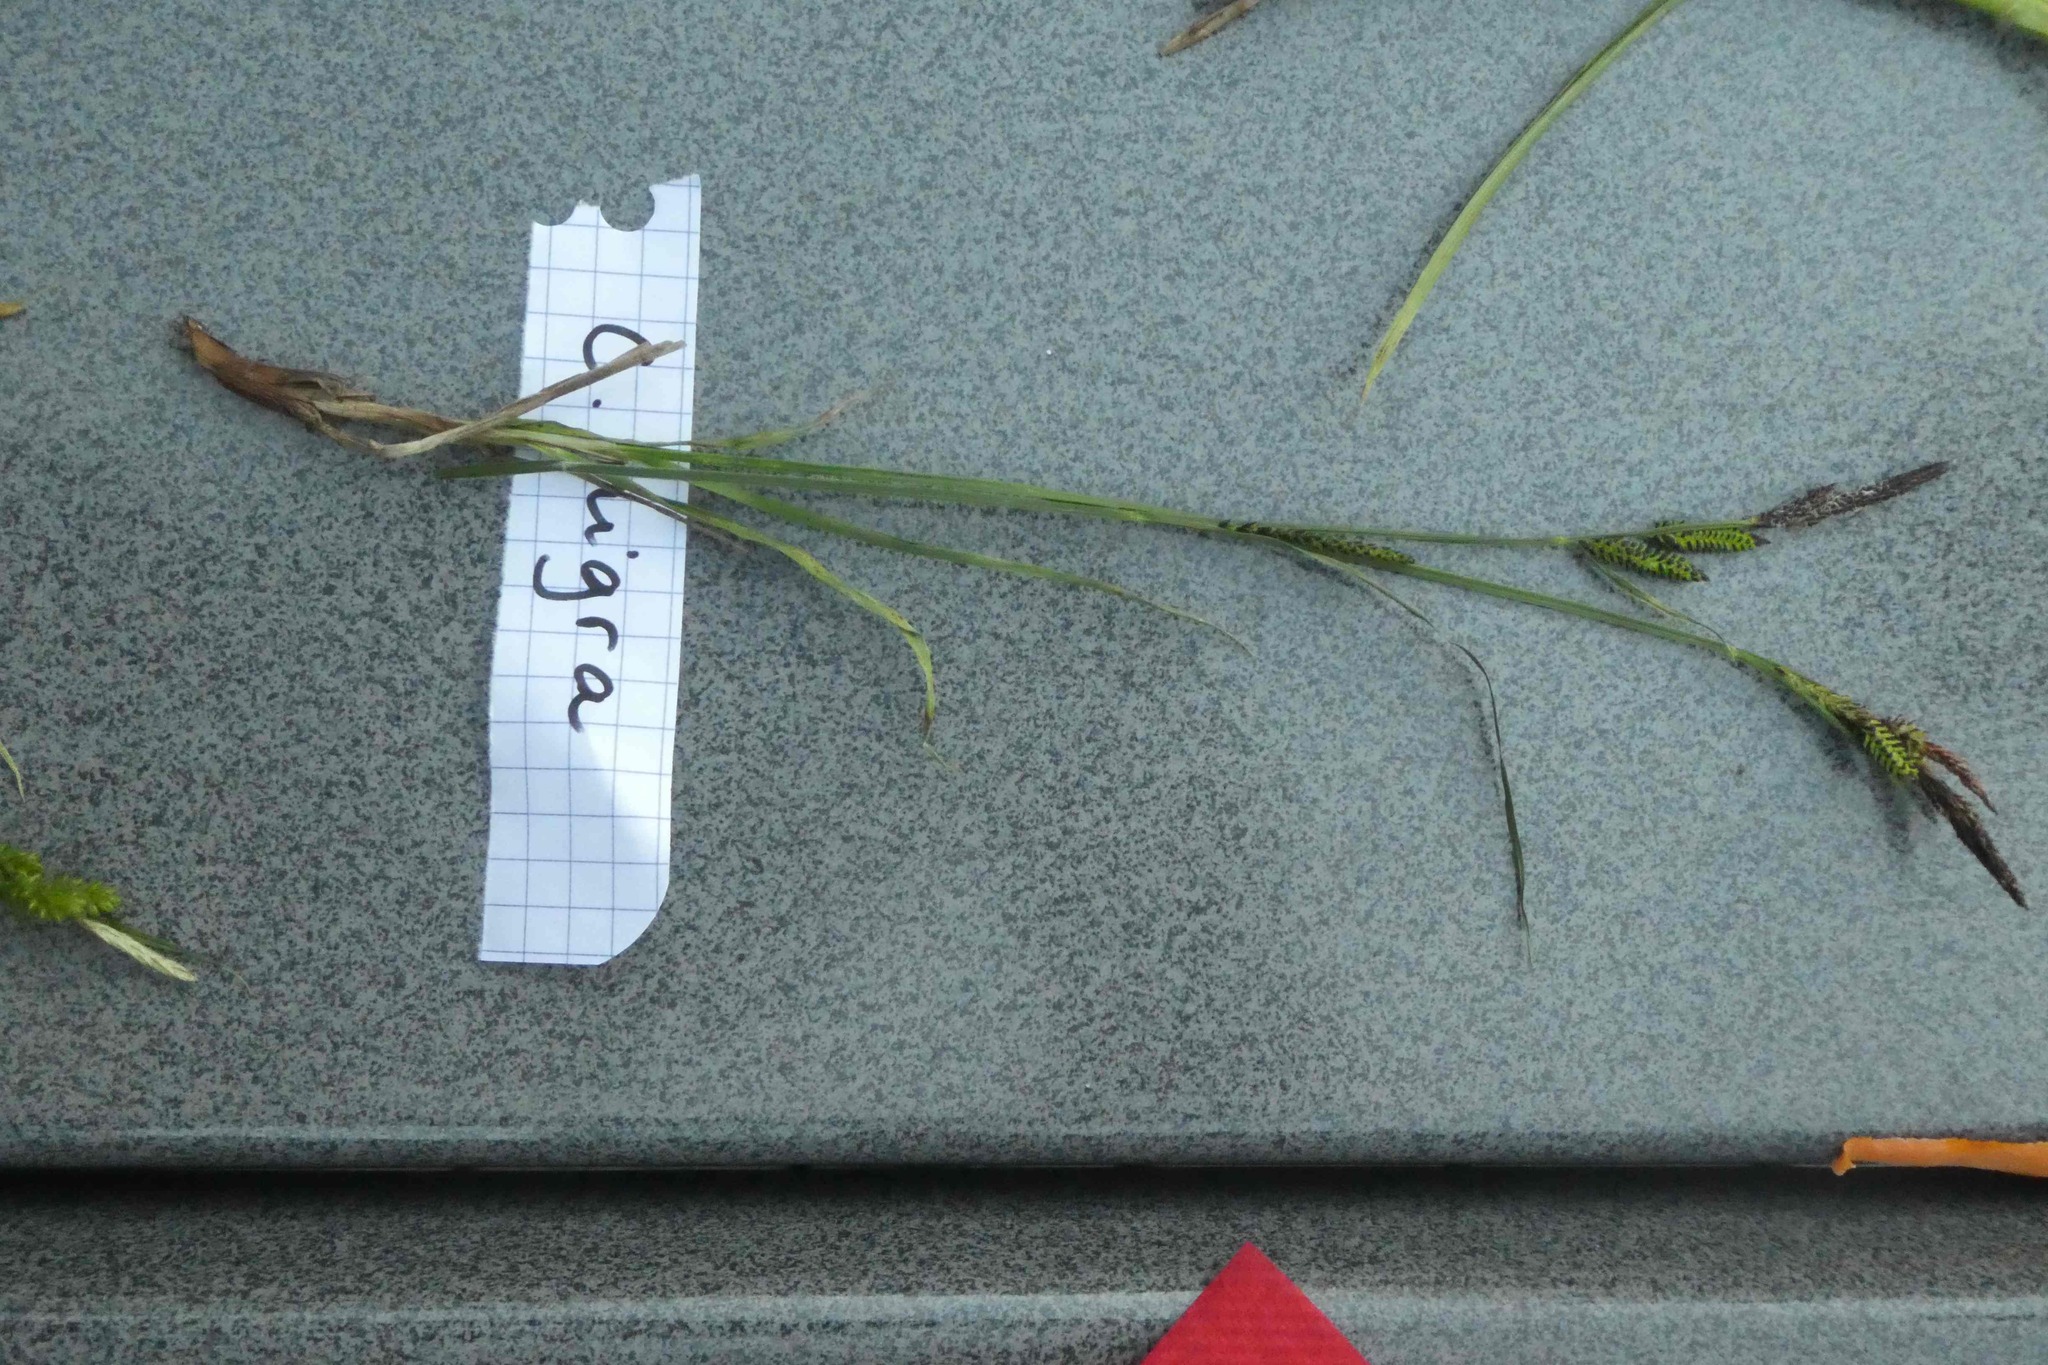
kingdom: Plantae
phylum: Tracheophyta
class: Liliopsida
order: Poales
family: Cyperaceae
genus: Carex
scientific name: Carex nigra
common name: Common sedge
